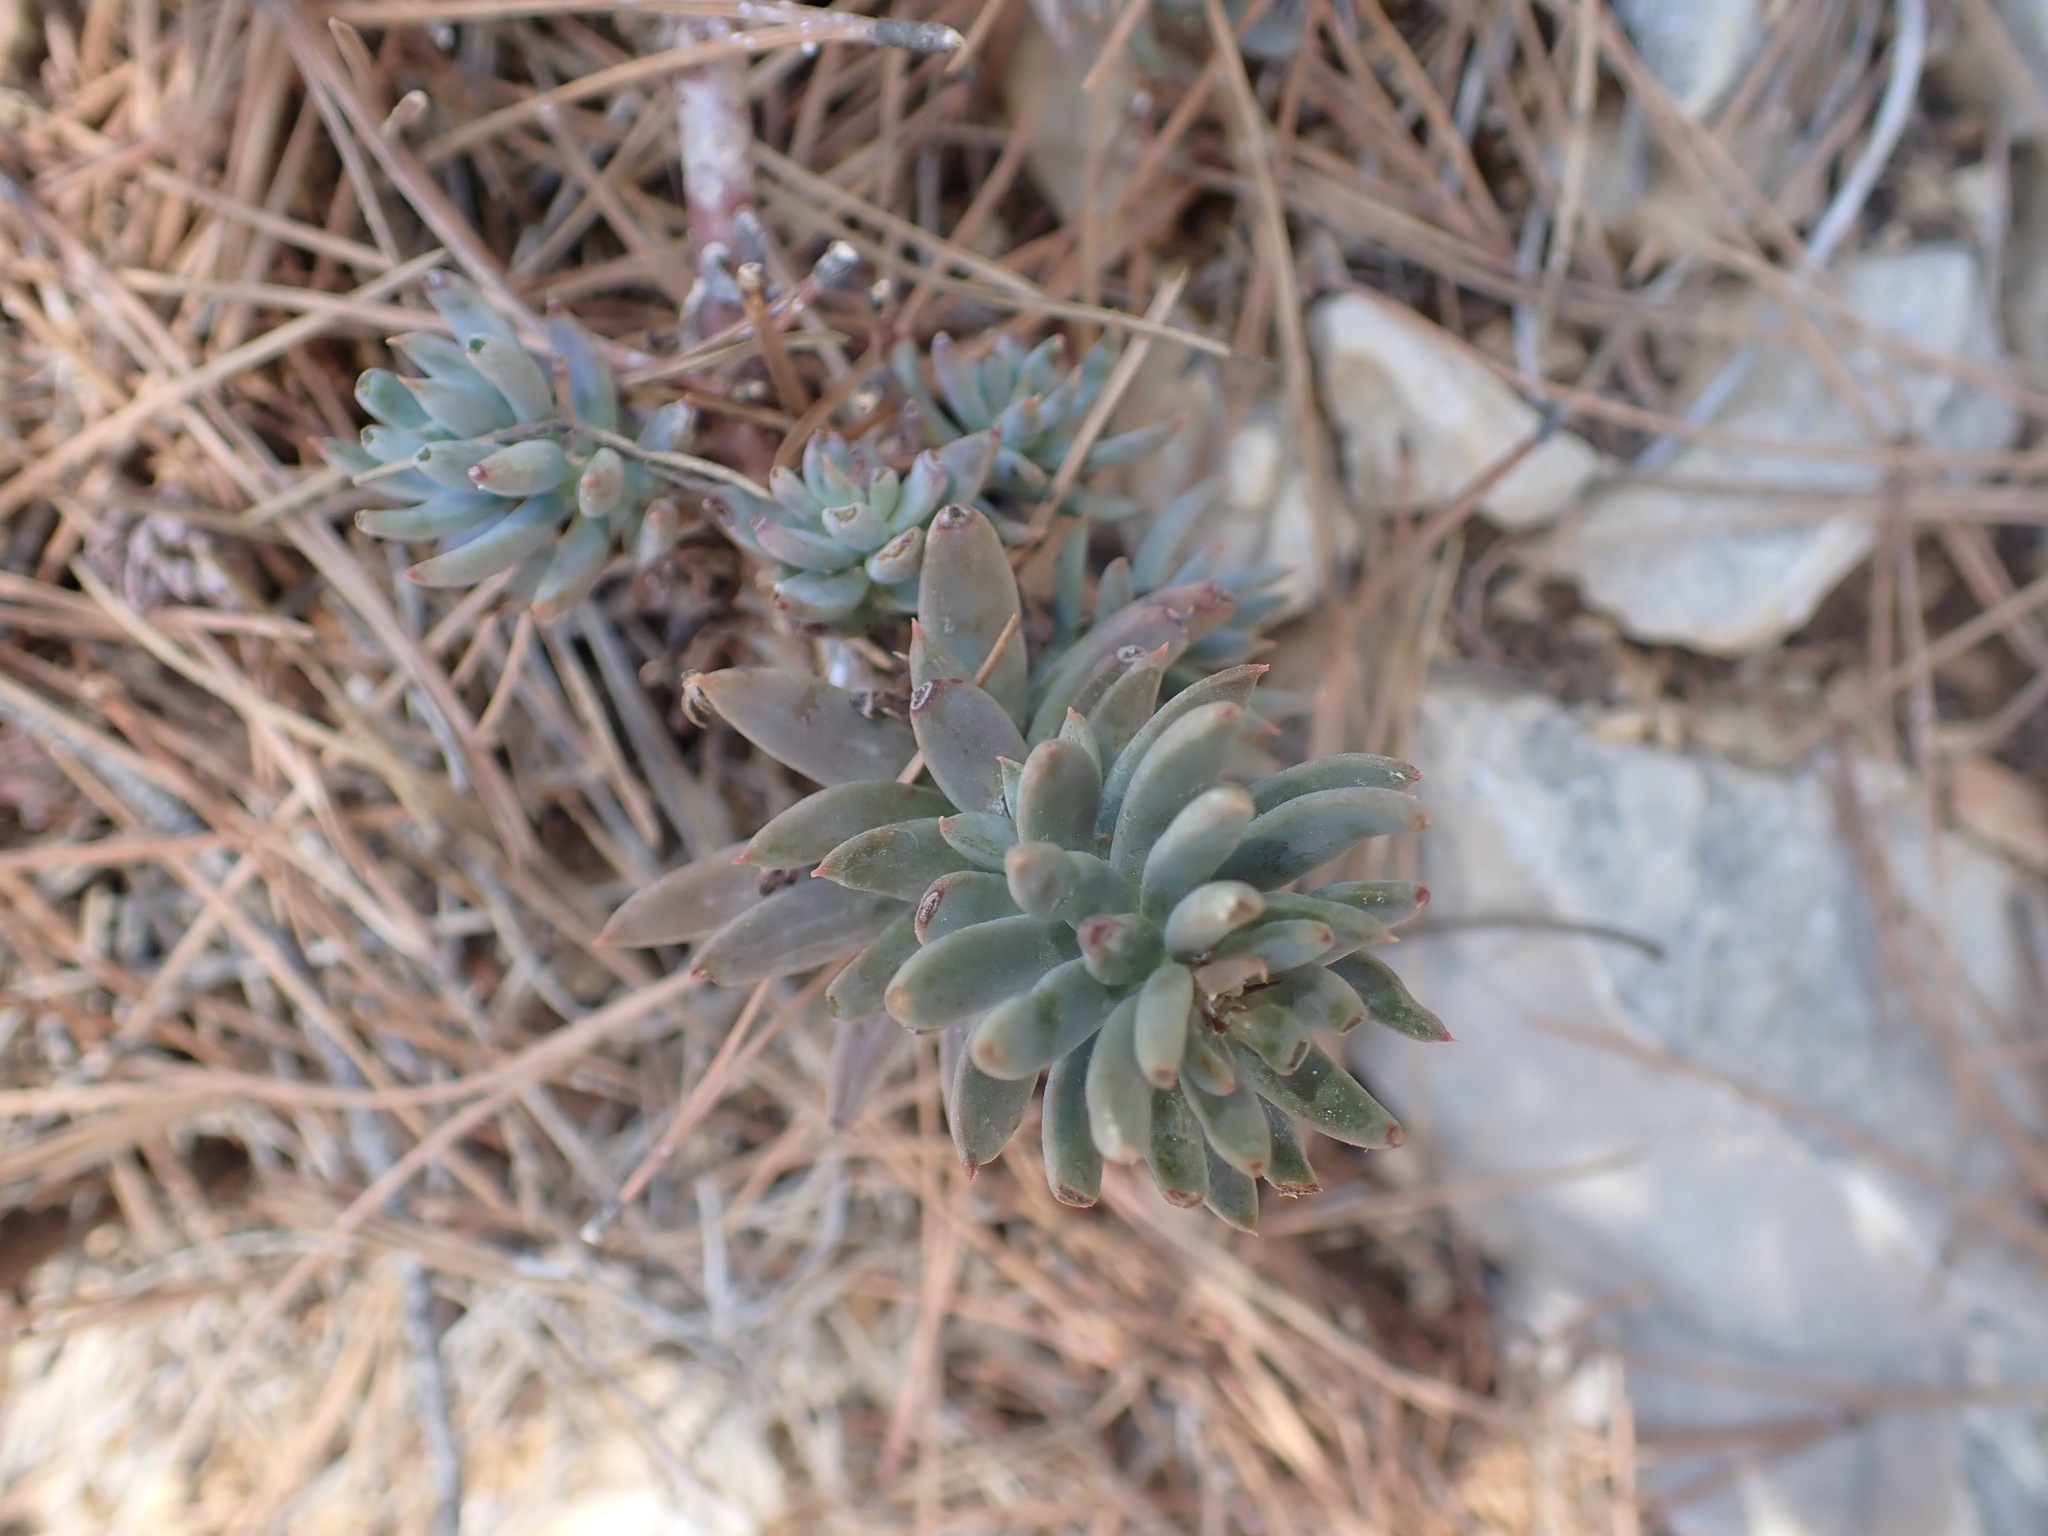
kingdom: Plantae
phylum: Tracheophyta
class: Magnoliopsida
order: Saxifragales
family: Crassulaceae
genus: Petrosedum
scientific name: Petrosedum sediforme
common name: Pale stonecrop
